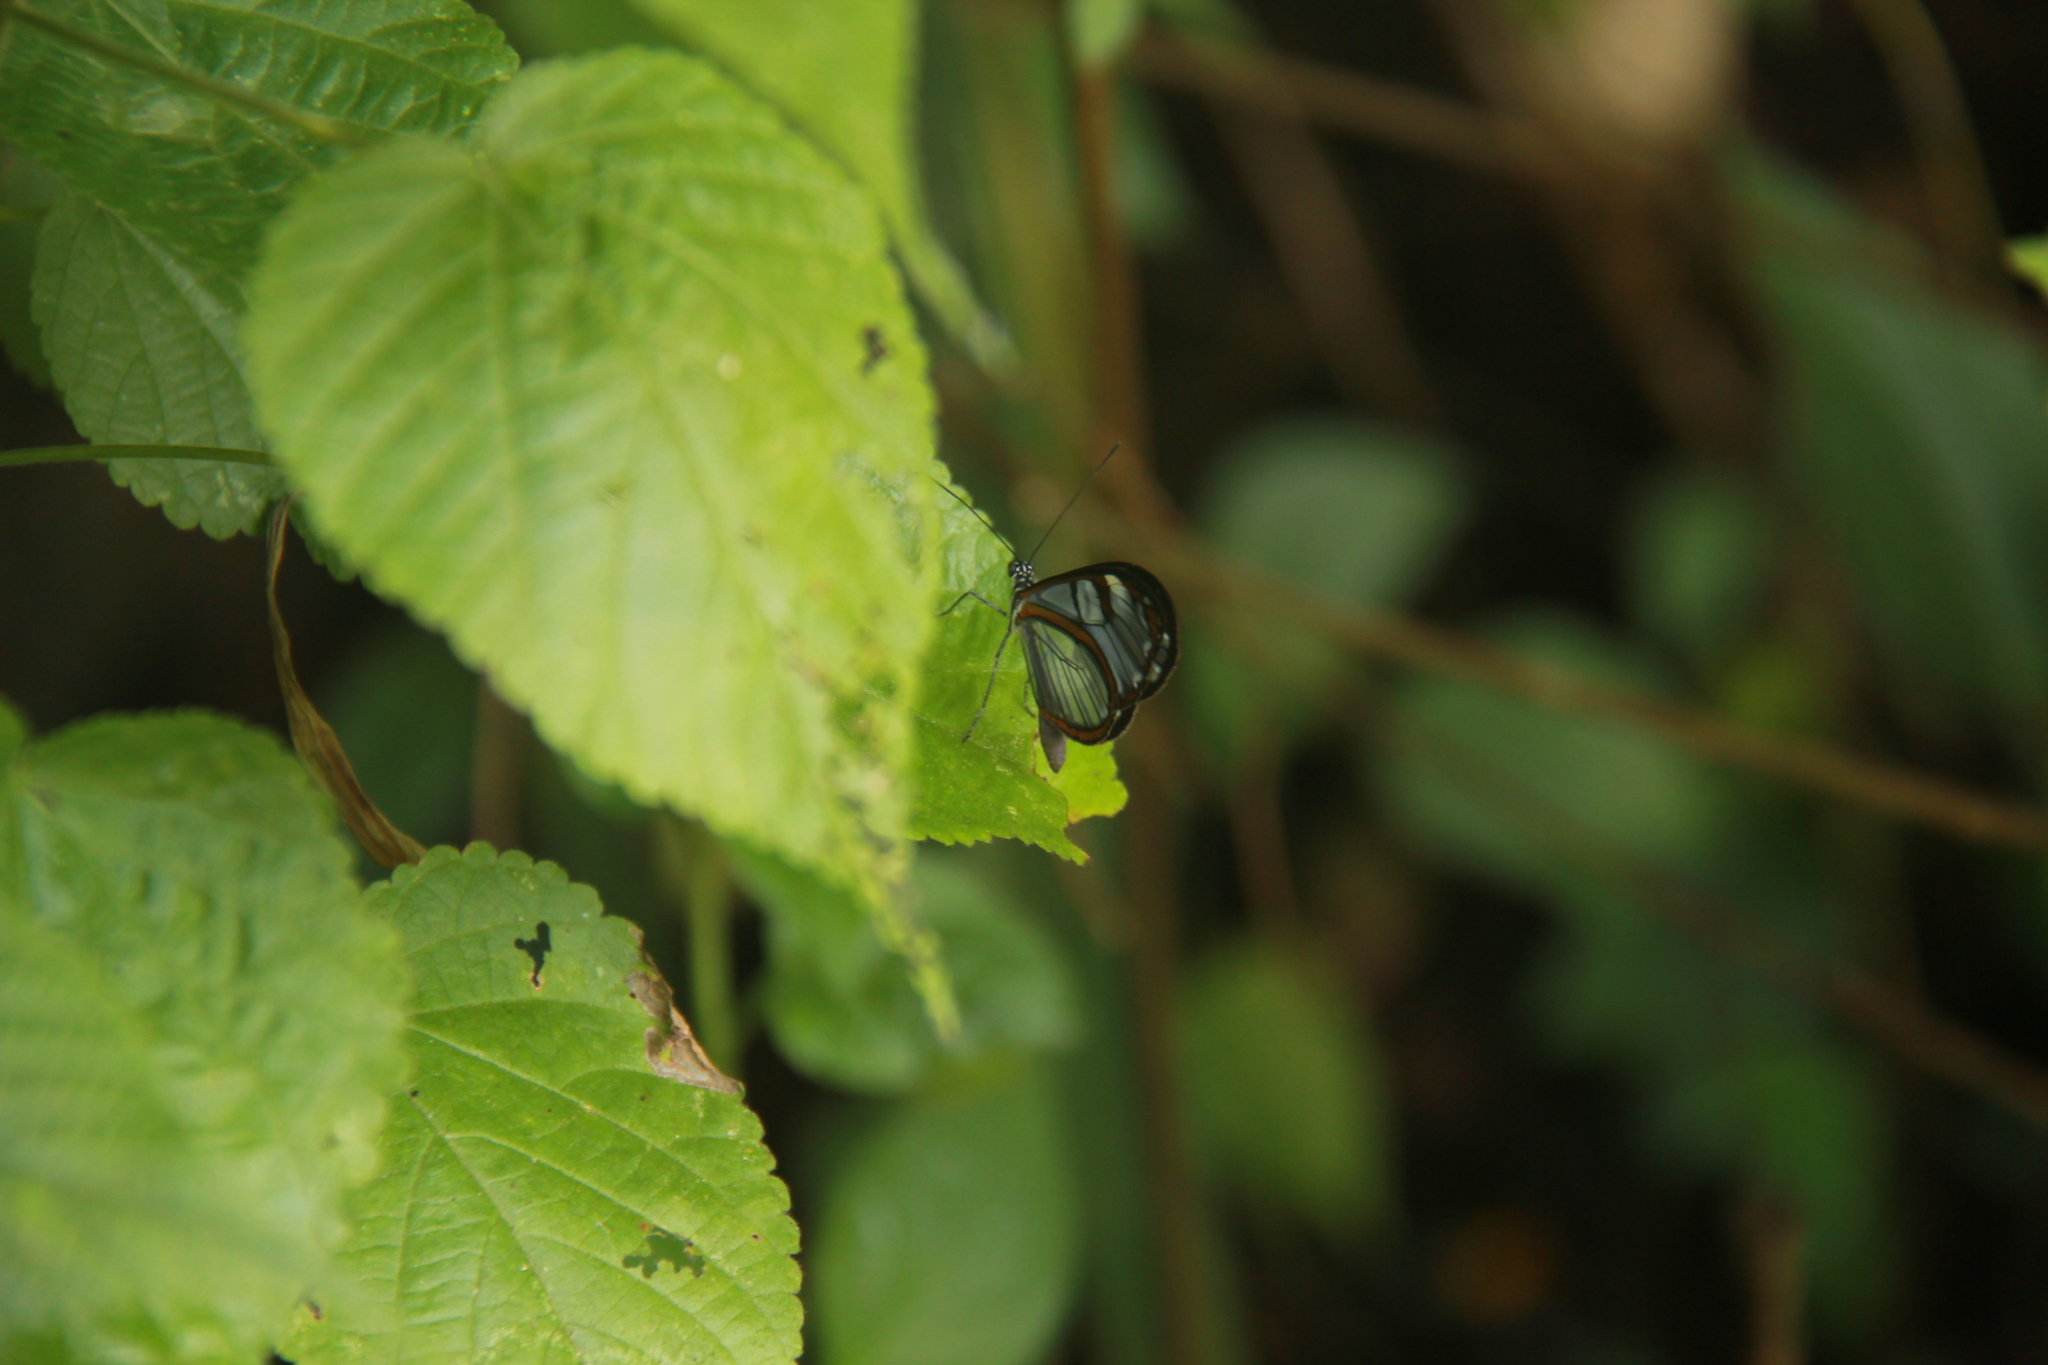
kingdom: Animalia
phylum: Arthropoda
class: Insecta
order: Lepidoptera
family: Nymphalidae
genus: Oleria
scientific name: Oleria phenomoe
